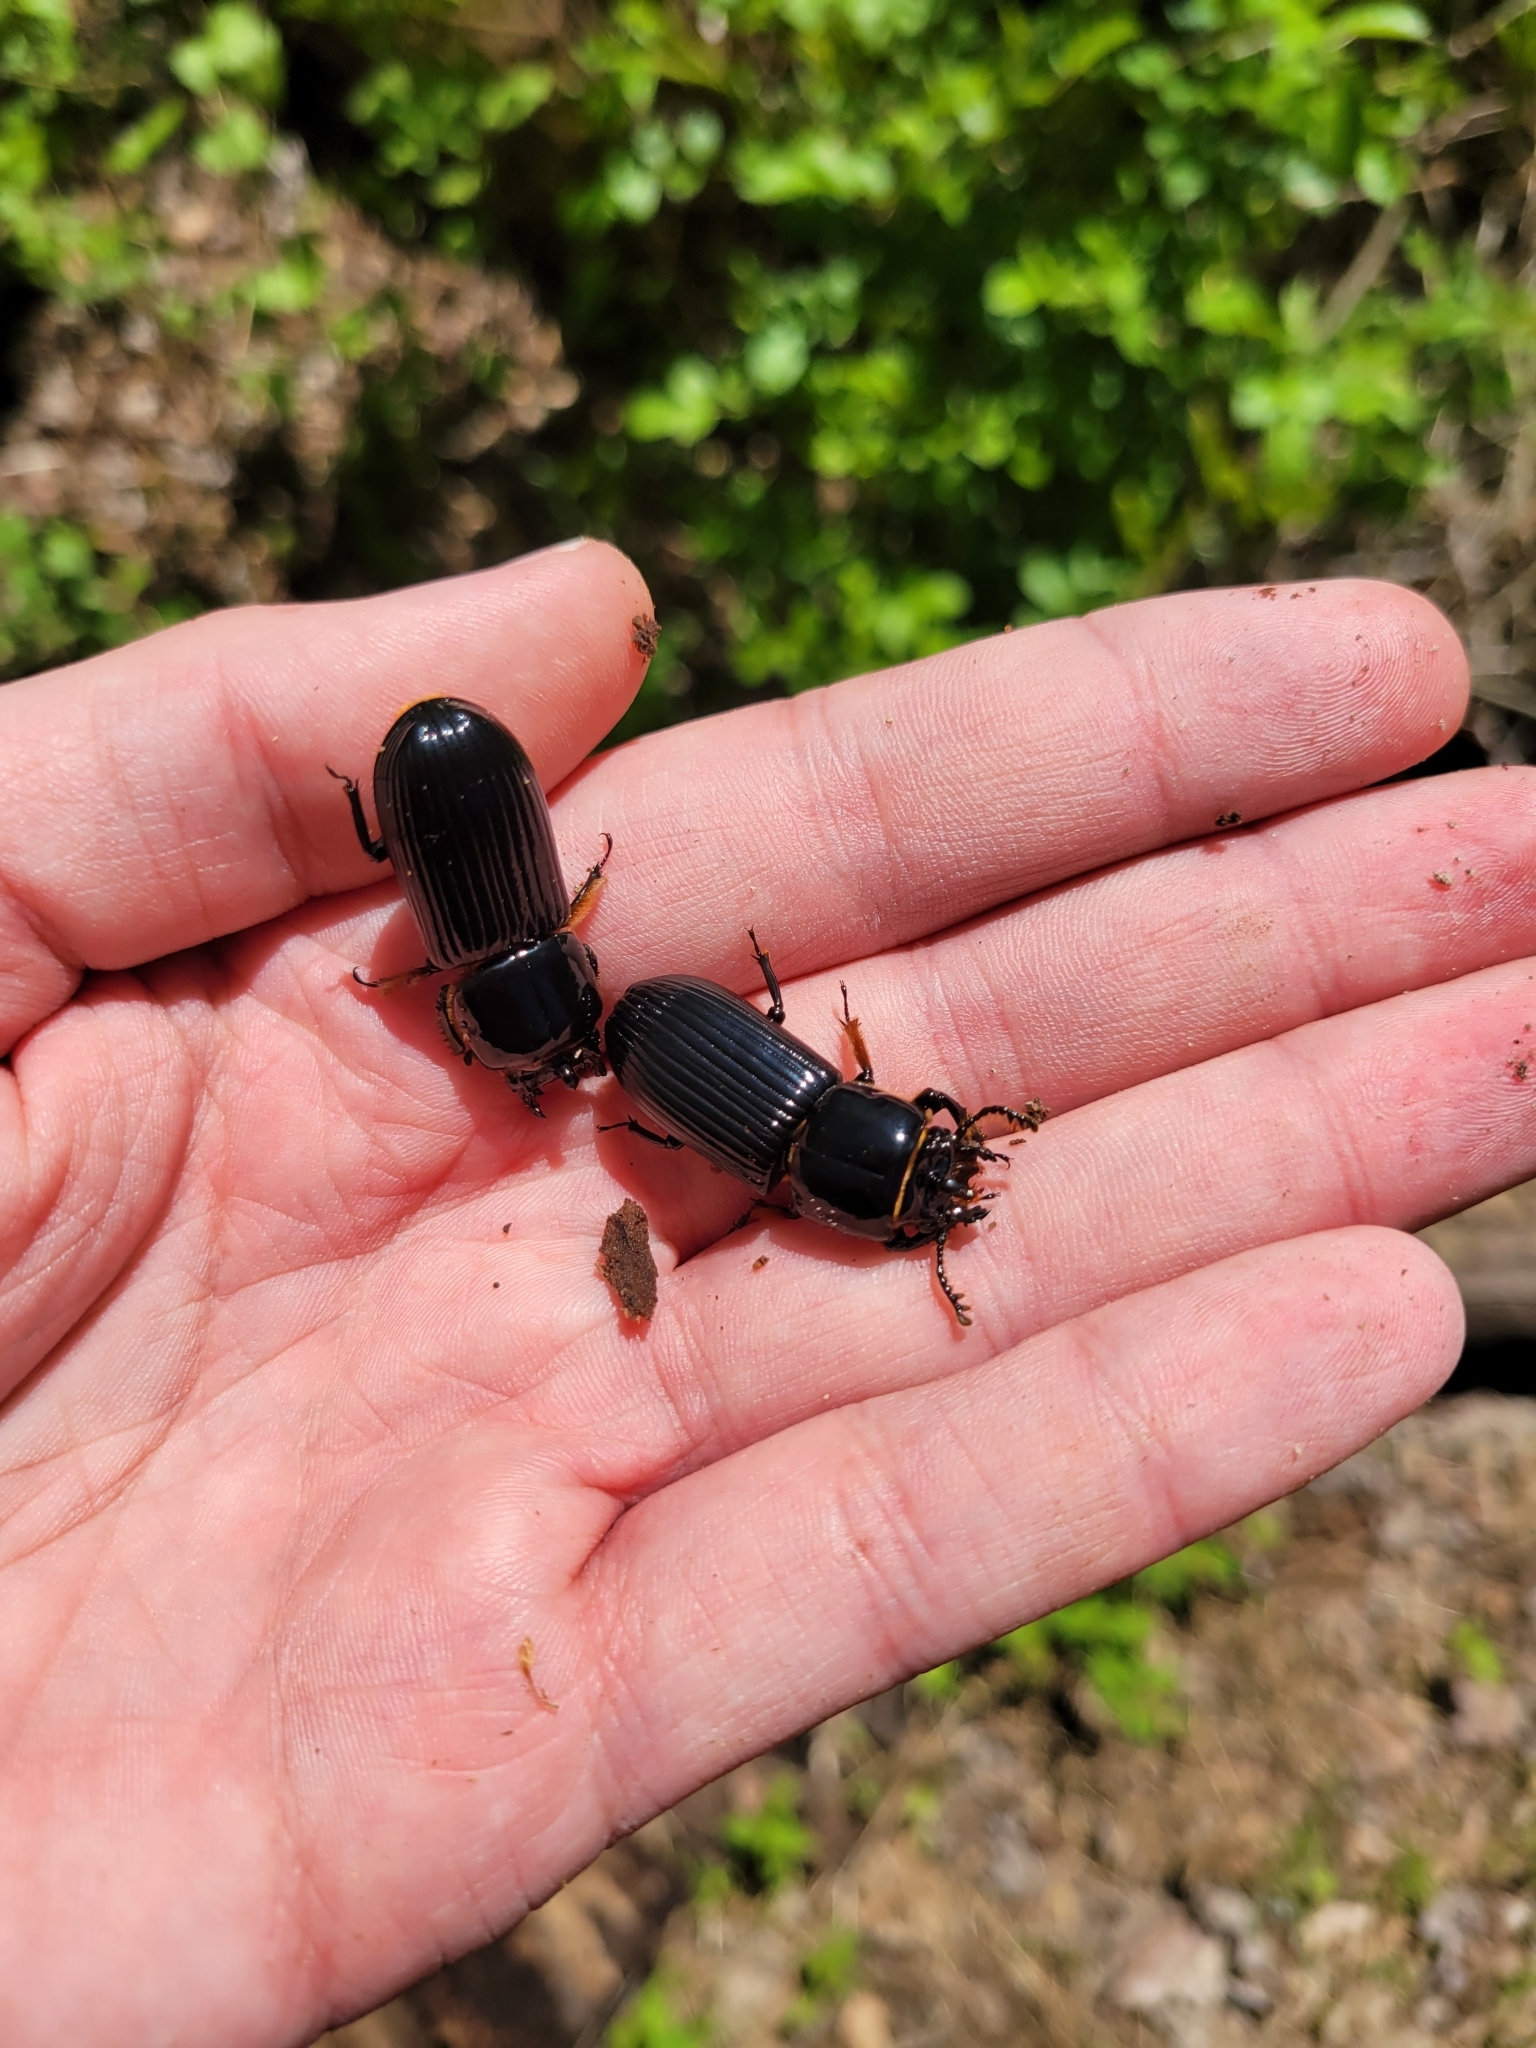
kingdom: Animalia
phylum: Arthropoda
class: Insecta
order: Coleoptera
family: Passalidae
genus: Odontotaenius
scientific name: Odontotaenius disjunctus
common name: Patent leather beetle
